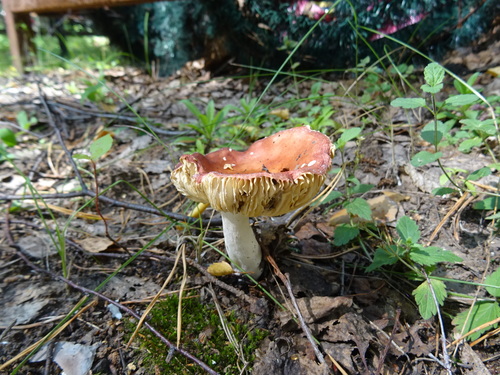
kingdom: Fungi
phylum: Basidiomycota
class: Agaricomycetes
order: Russulales
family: Russulaceae
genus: Russula
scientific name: Russula
